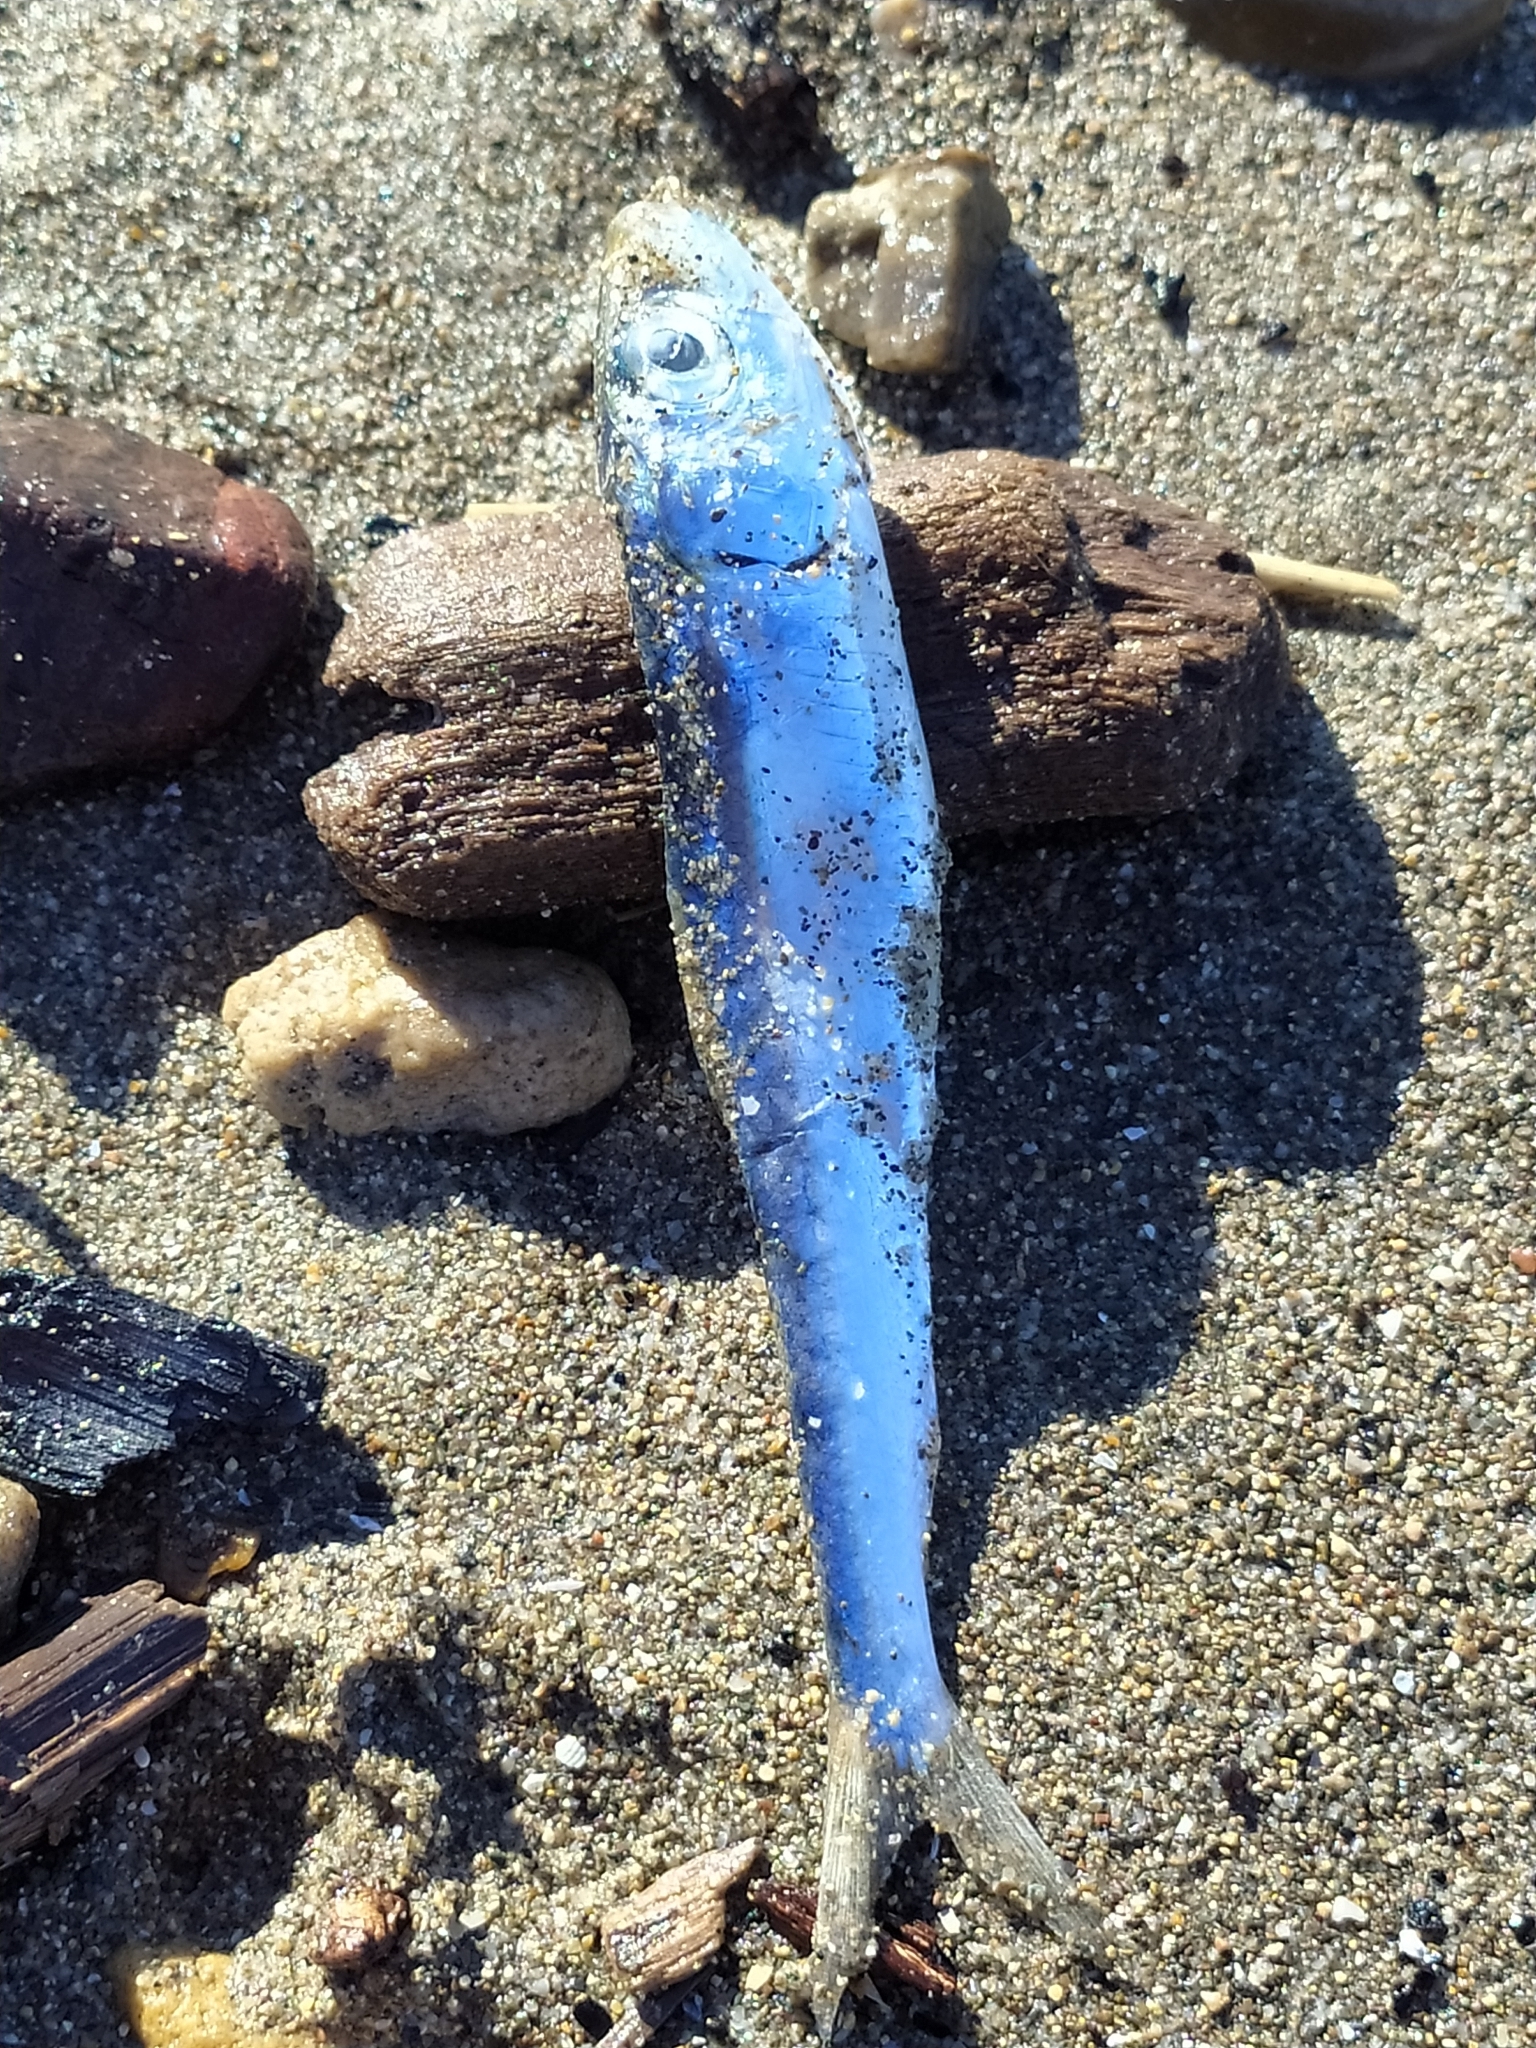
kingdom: Animalia
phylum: Chordata
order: Clupeiformes
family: Clupeidae
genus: Sardinella
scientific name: Sardinella aurita
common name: Round sardinella
